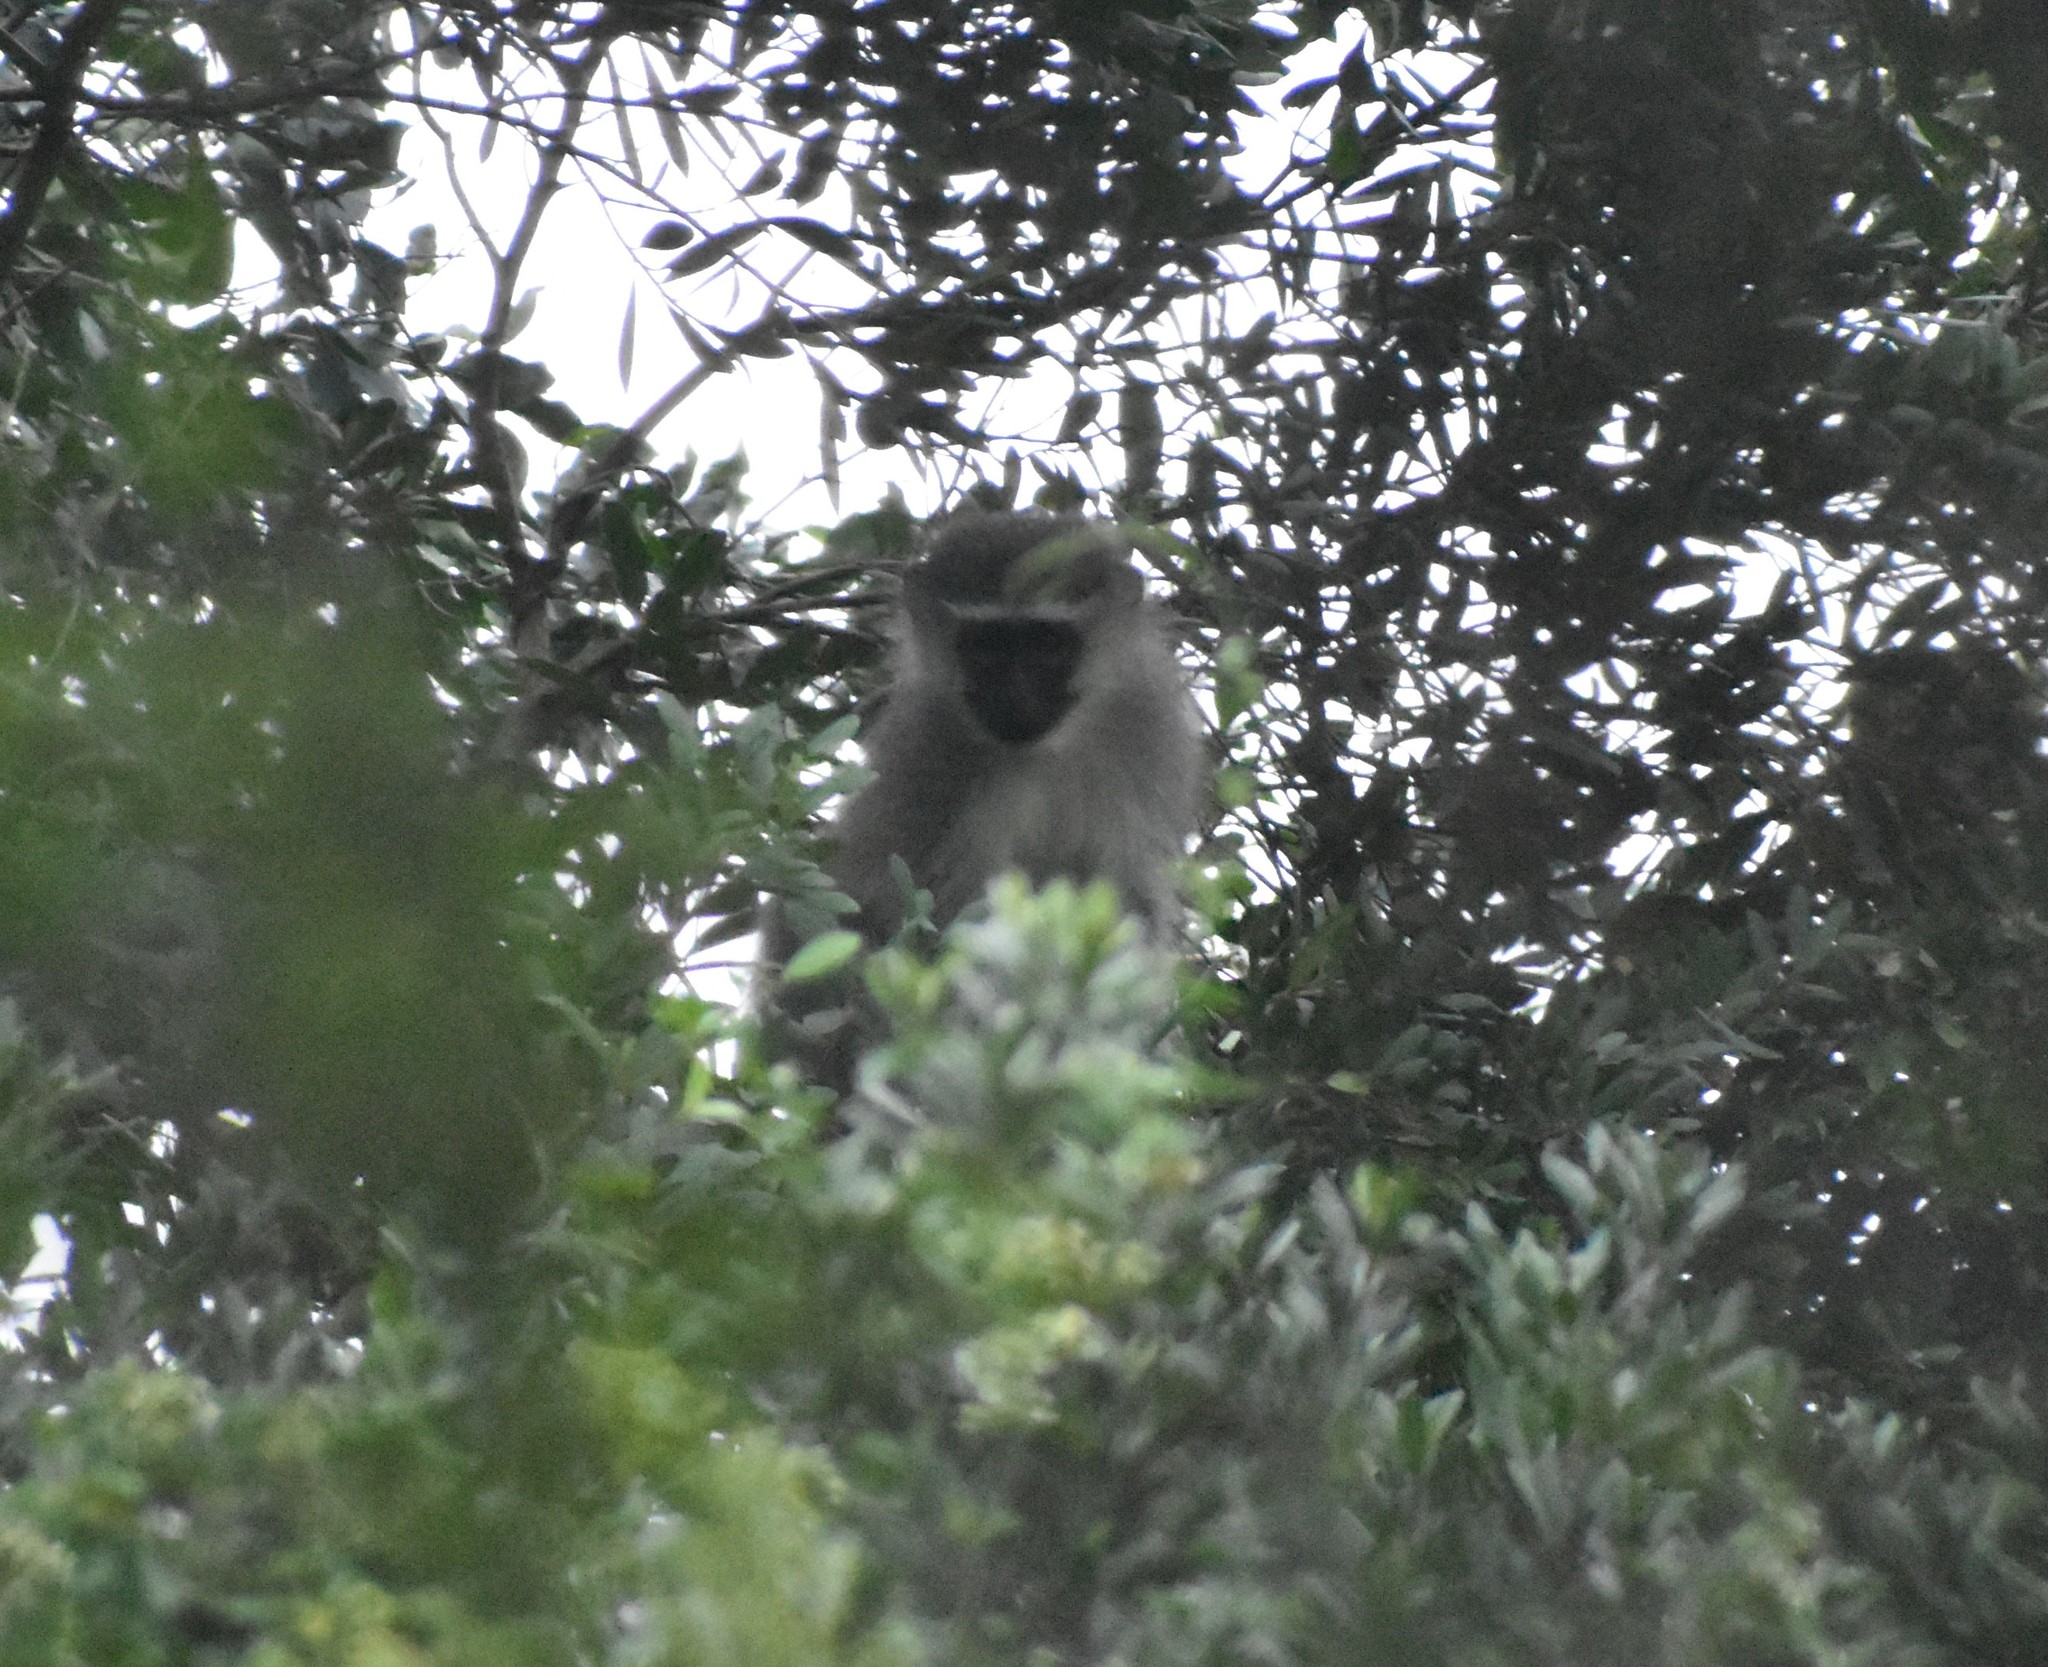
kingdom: Animalia
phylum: Chordata
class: Mammalia
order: Primates
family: Cercopithecidae
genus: Chlorocebus
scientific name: Chlorocebus pygerythrus
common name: Vervet monkey
